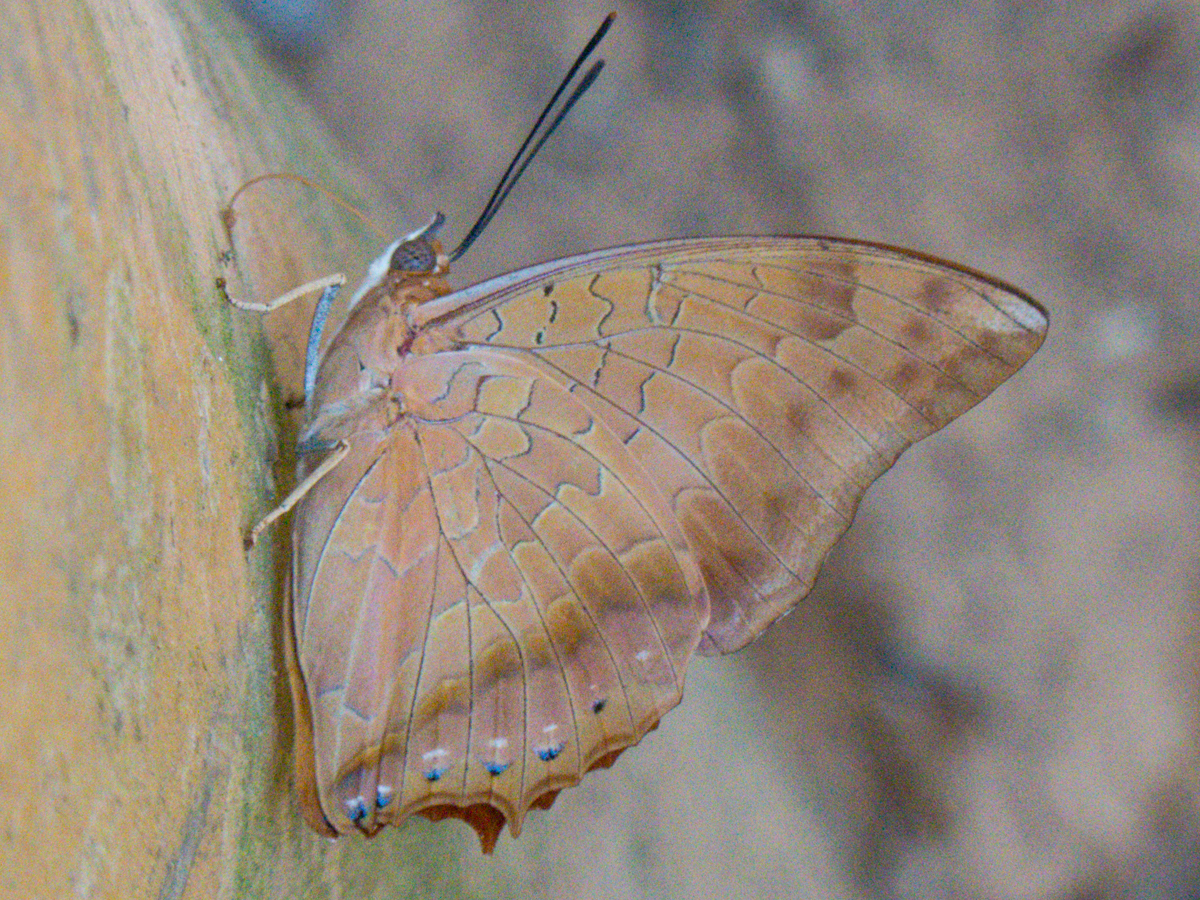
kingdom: Animalia
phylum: Arthropoda
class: Insecta
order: Lepidoptera
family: Nymphalidae
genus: Charaxes
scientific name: Charaxes bernardus
